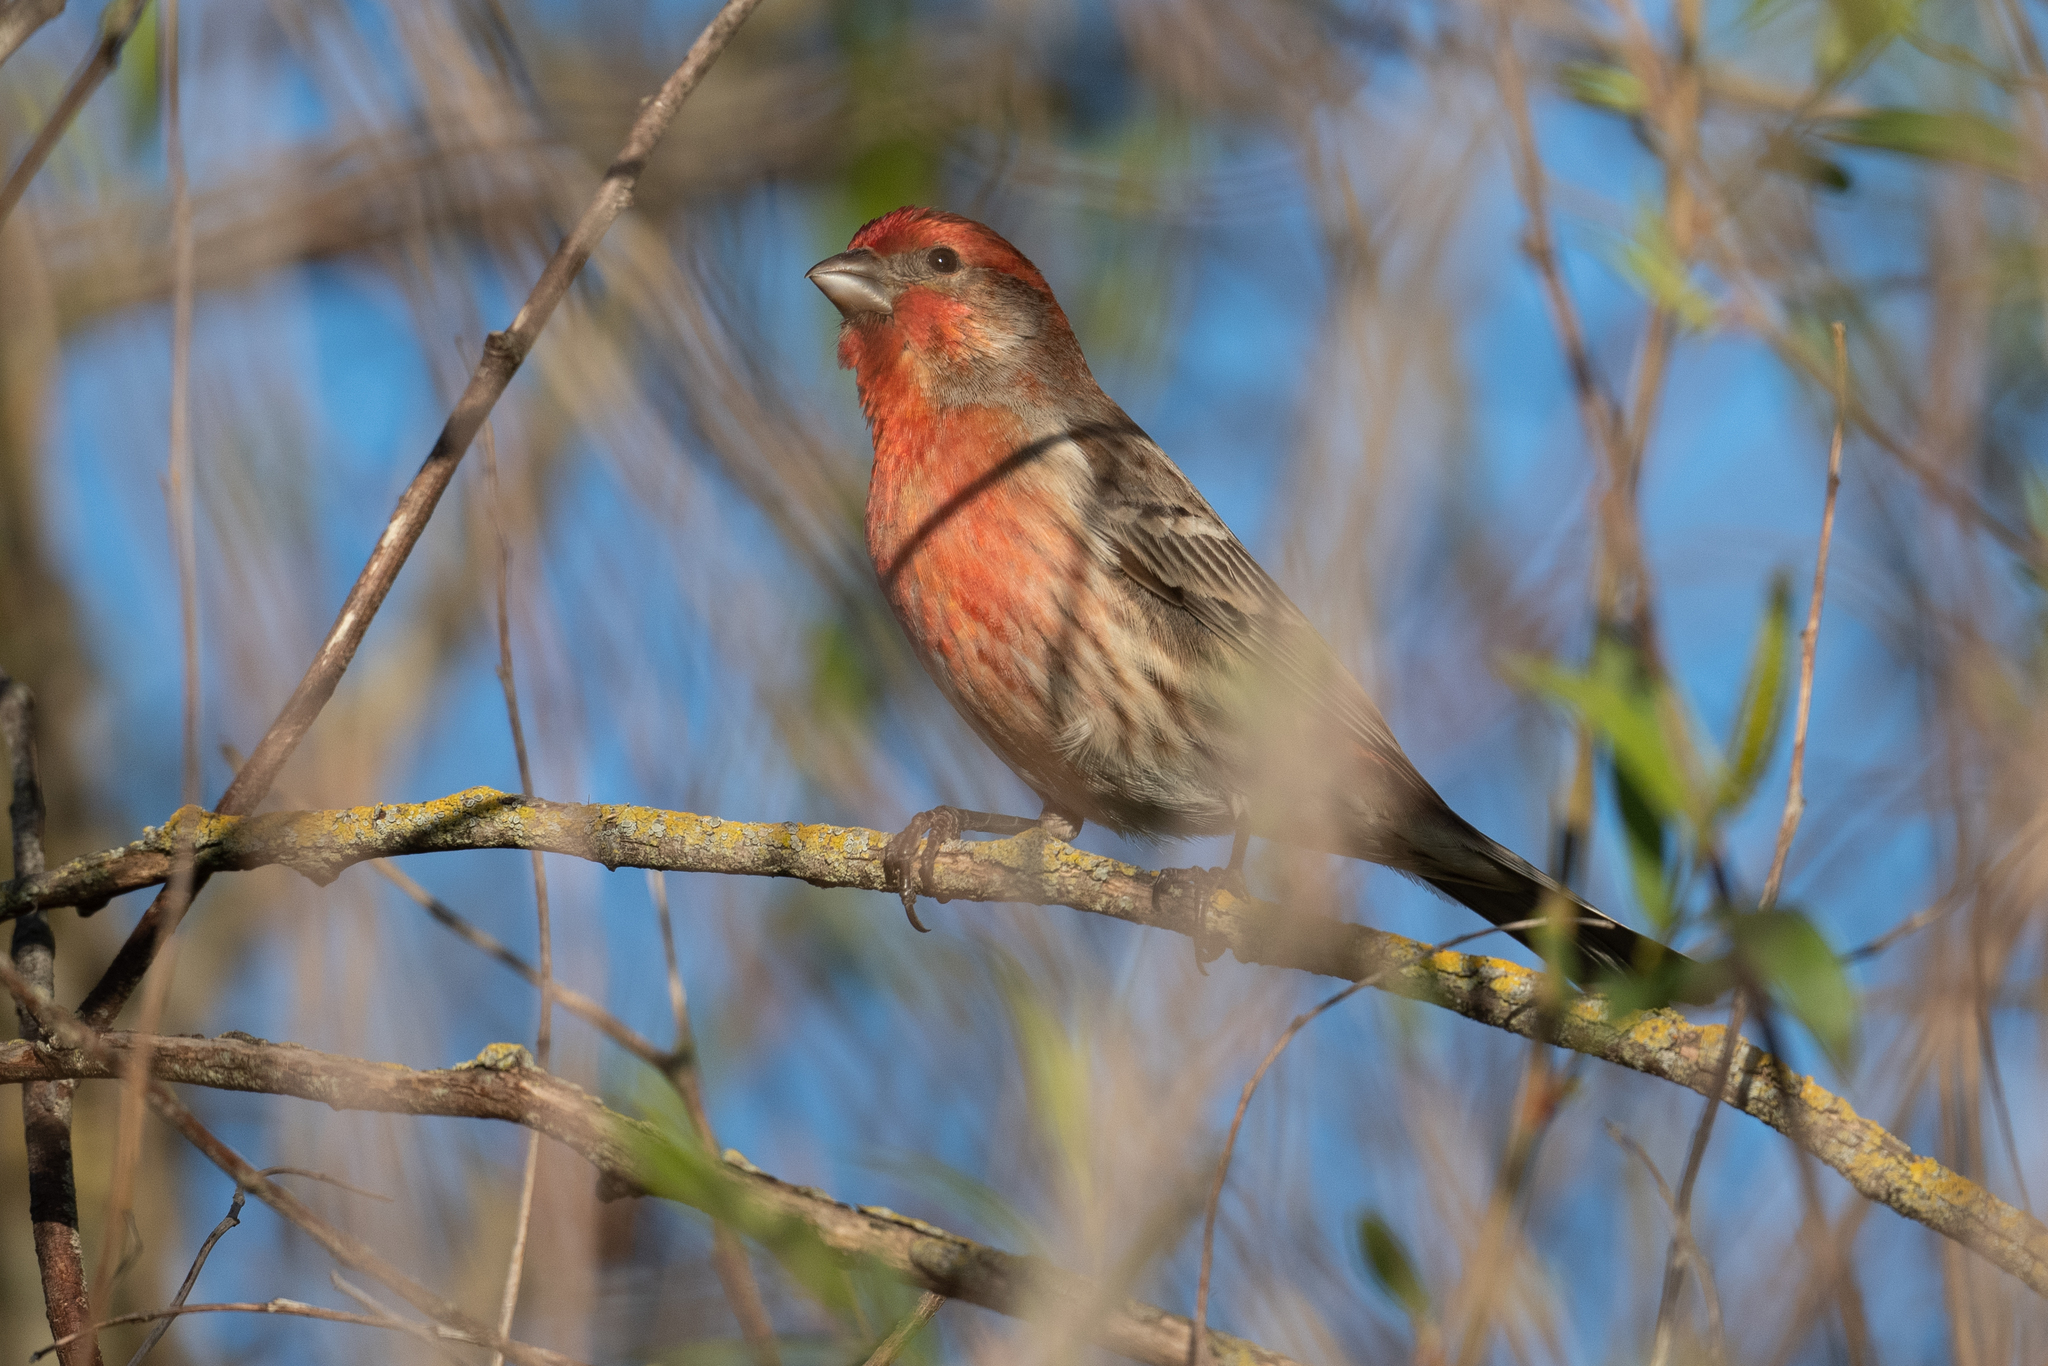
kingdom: Animalia
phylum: Chordata
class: Aves
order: Passeriformes
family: Fringillidae
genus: Haemorhous
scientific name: Haemorhous mexicanus
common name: House finch
